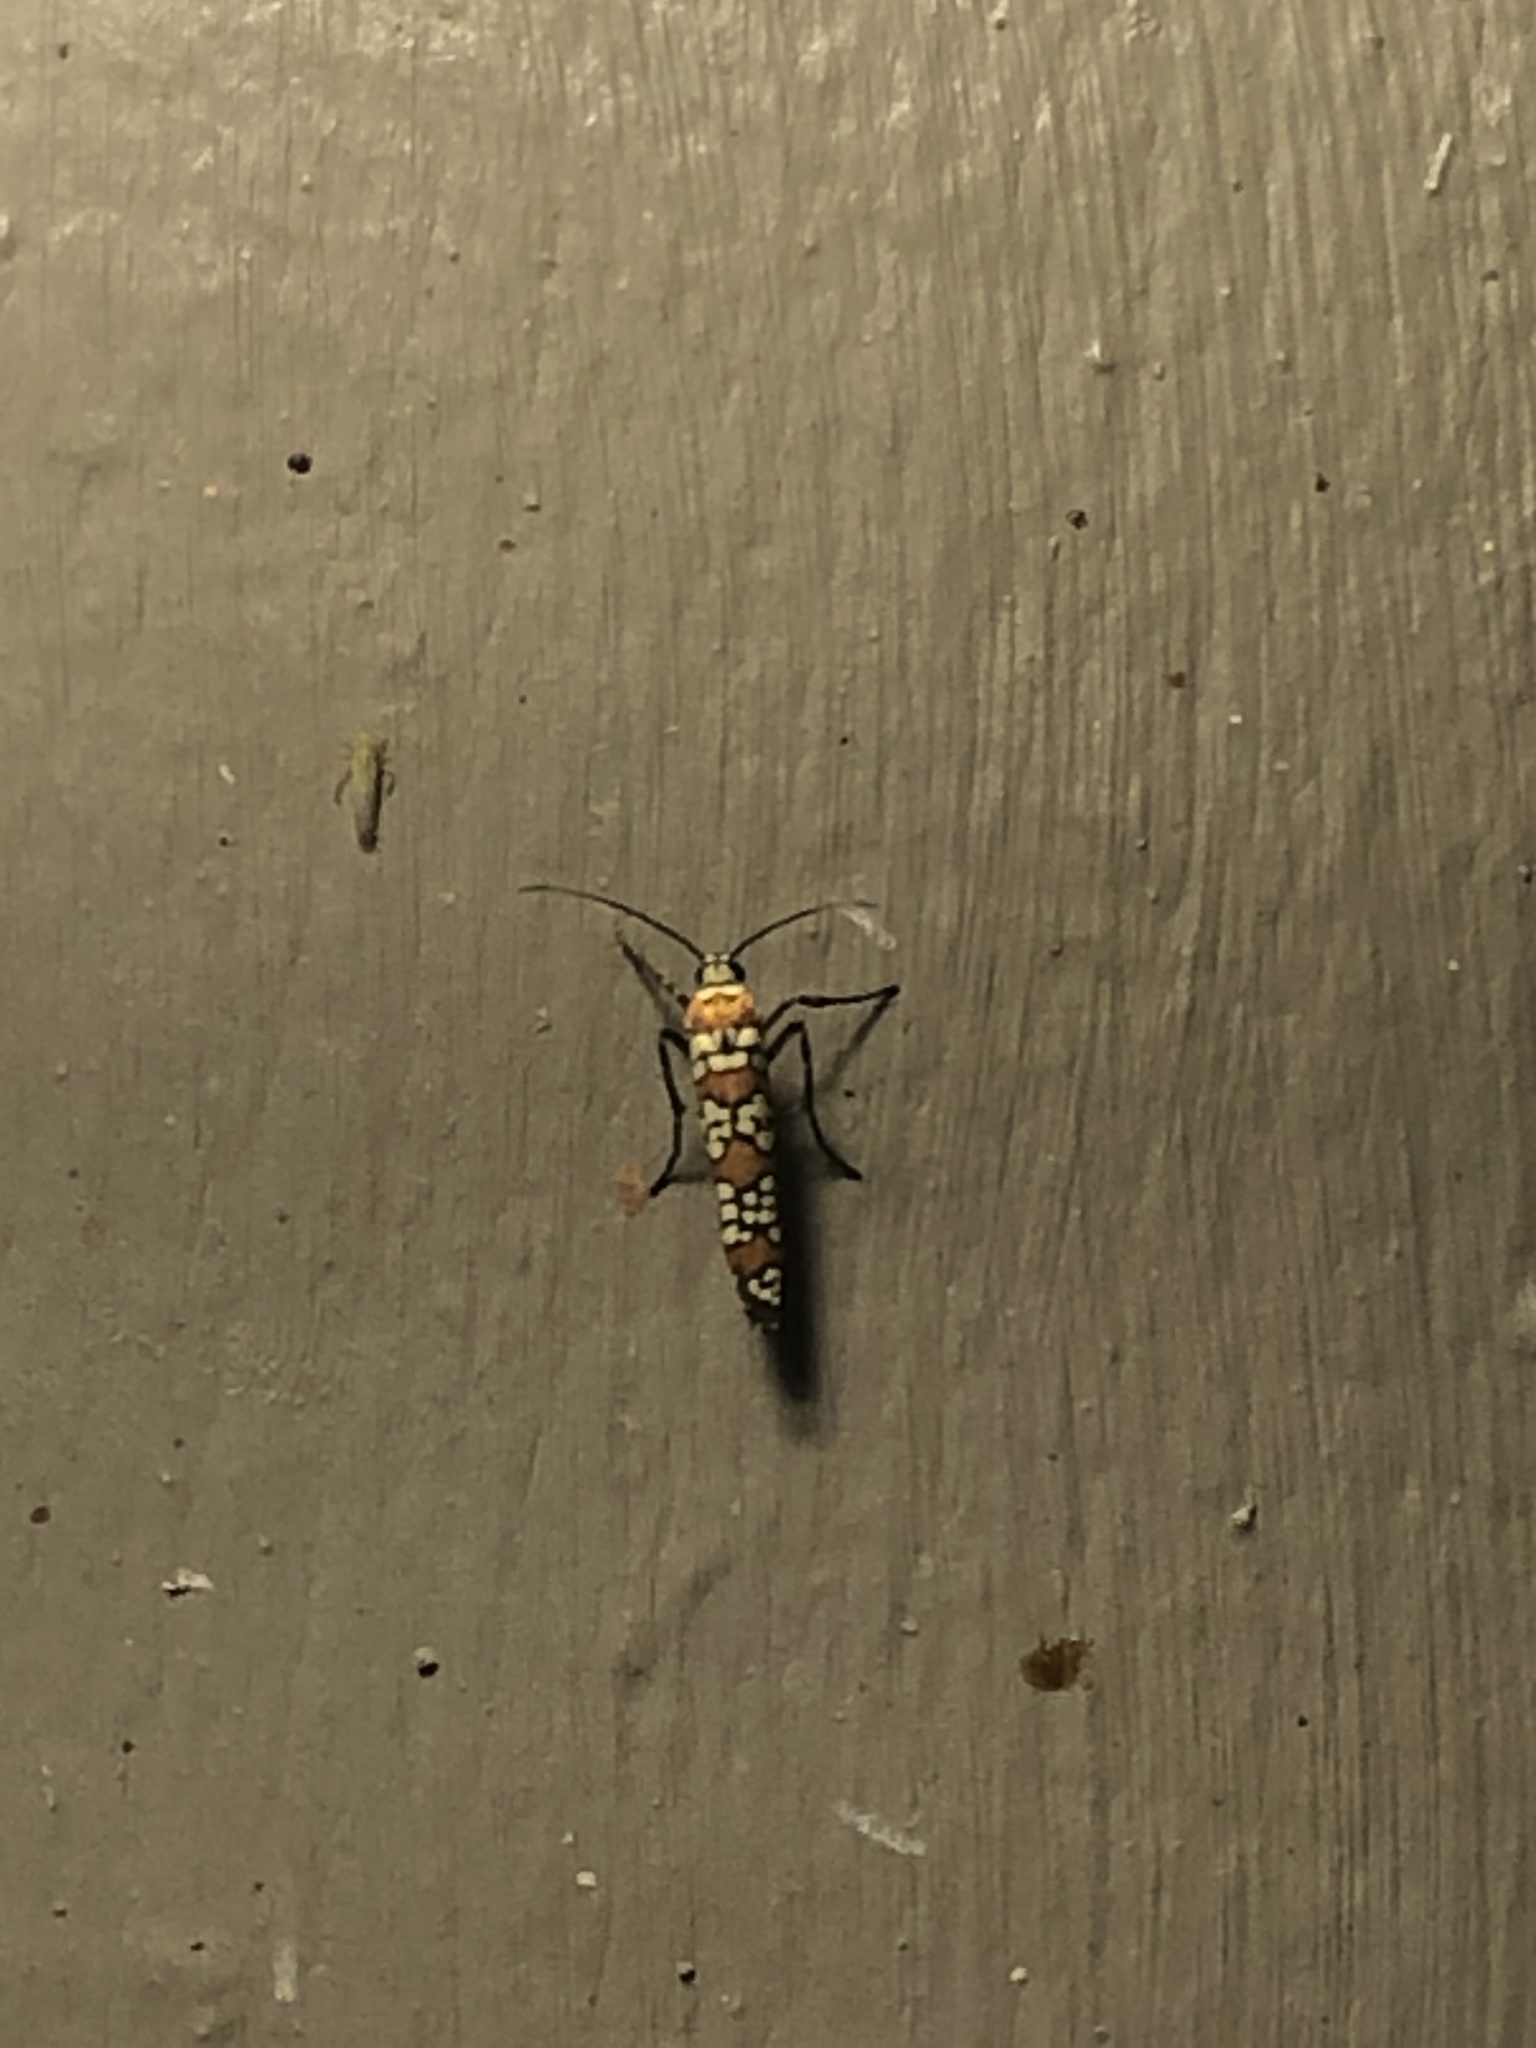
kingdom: Animalia
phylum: Arthropoda
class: Insecta
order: Lepidoptera
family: Attevidae
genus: Atteva
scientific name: Atteva punctella
